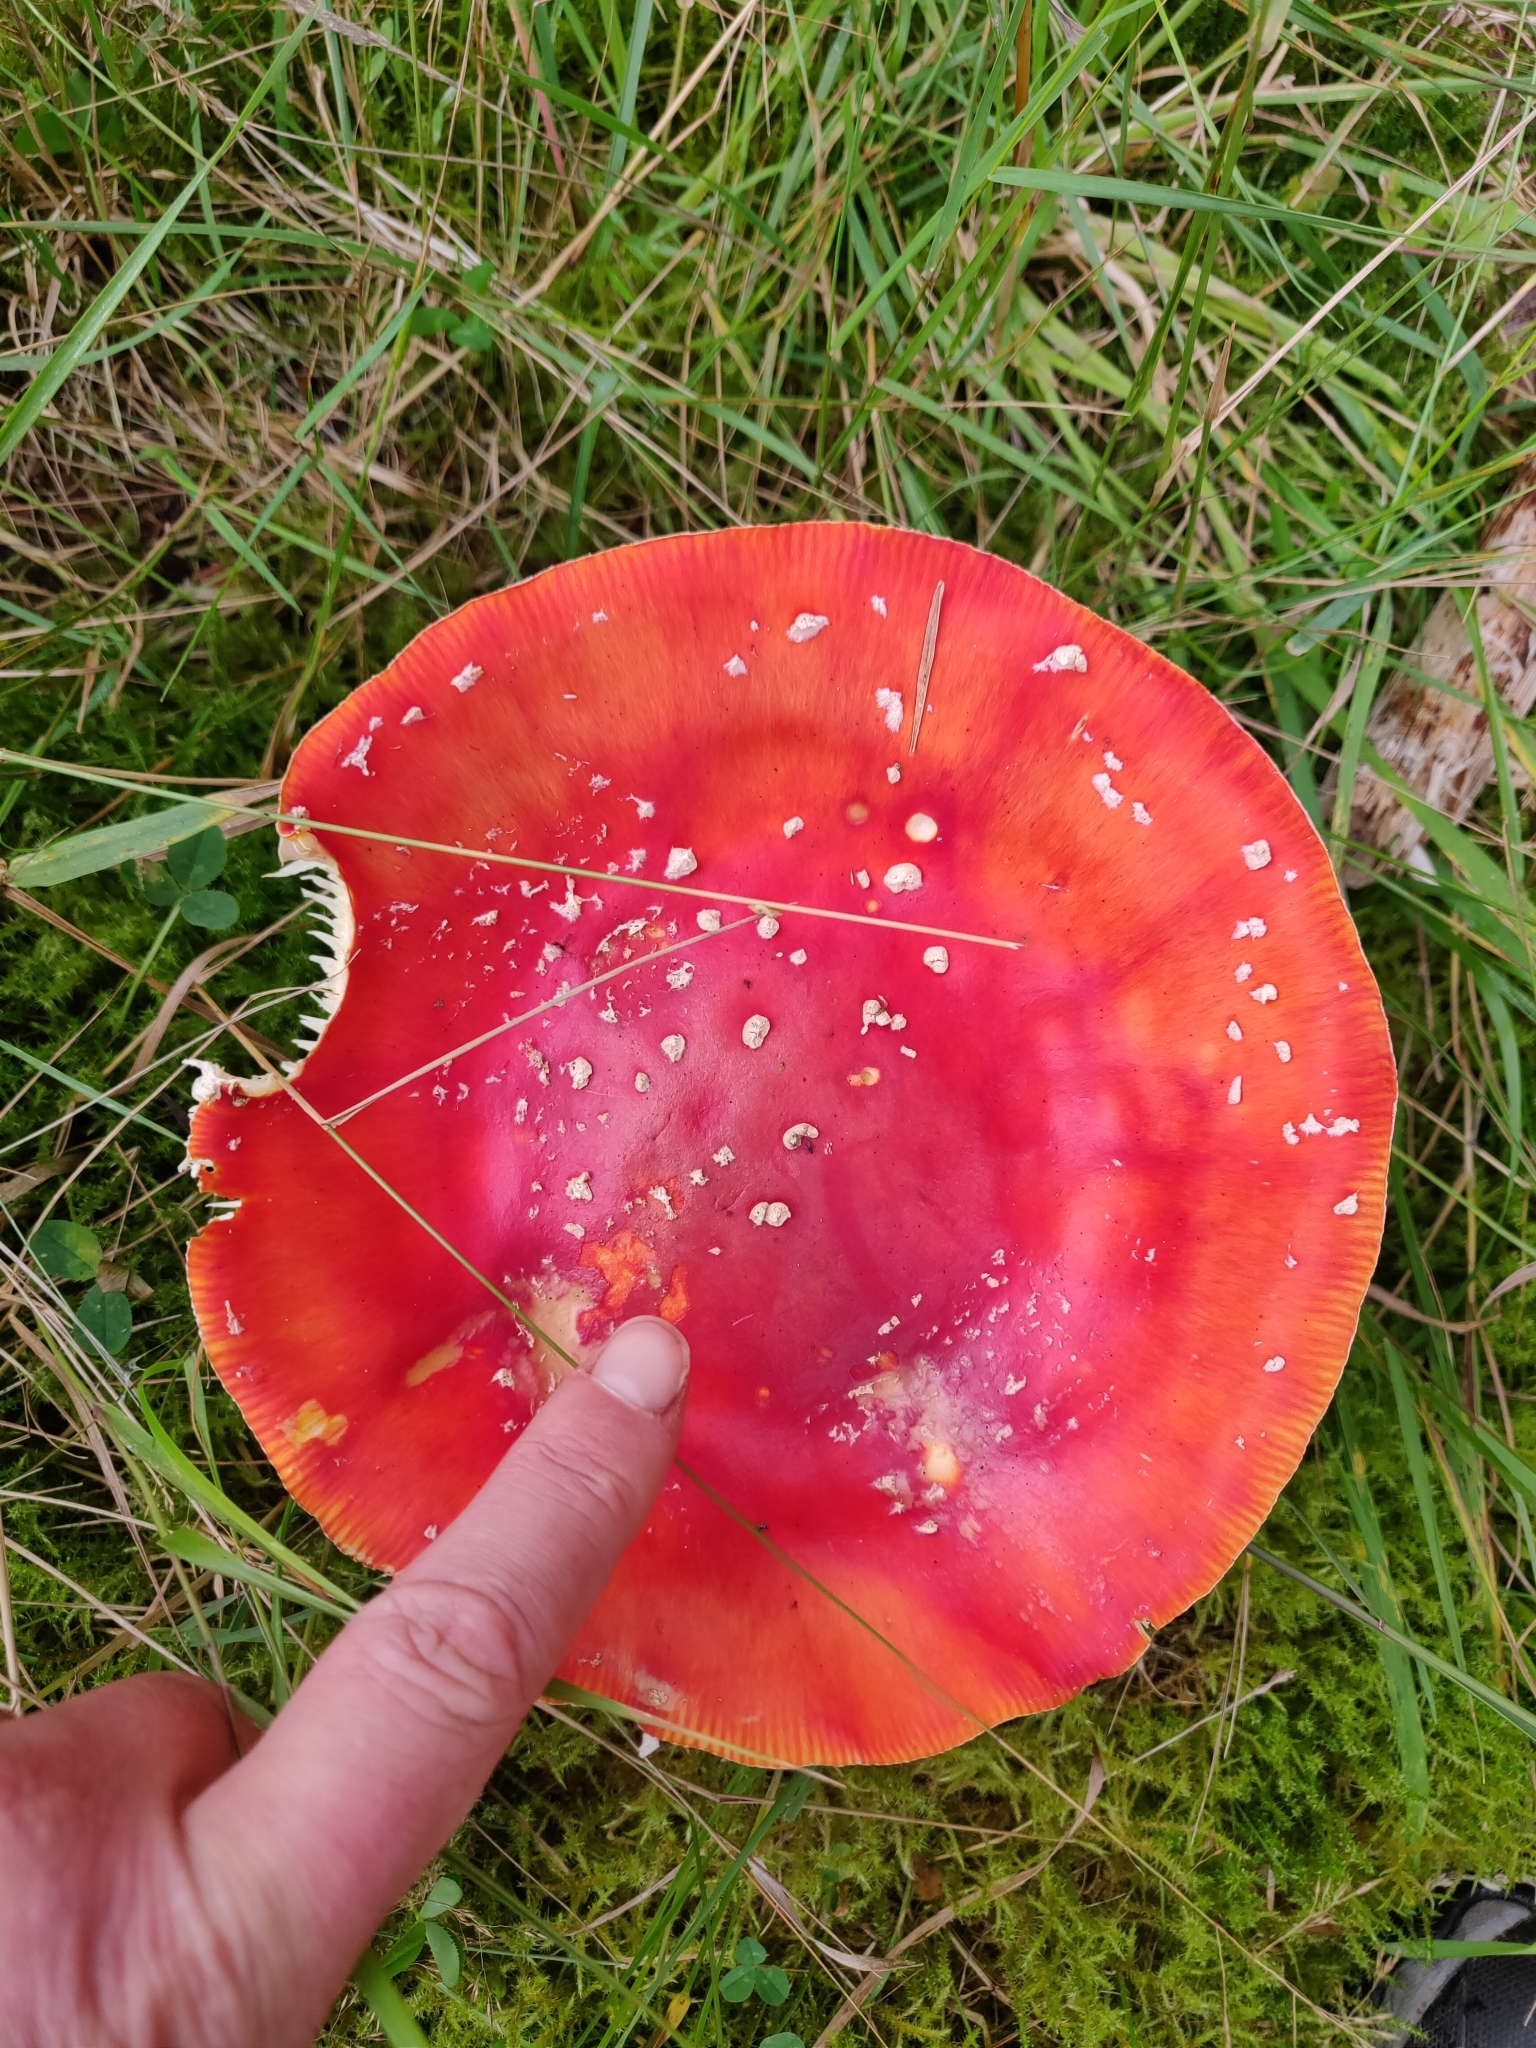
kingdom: Fungi
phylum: Basidiomycota
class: Agaricomycetes
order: Agaricales
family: Amanitaceae
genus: Amanita
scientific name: Amanita muscaria
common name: Fly agaric
